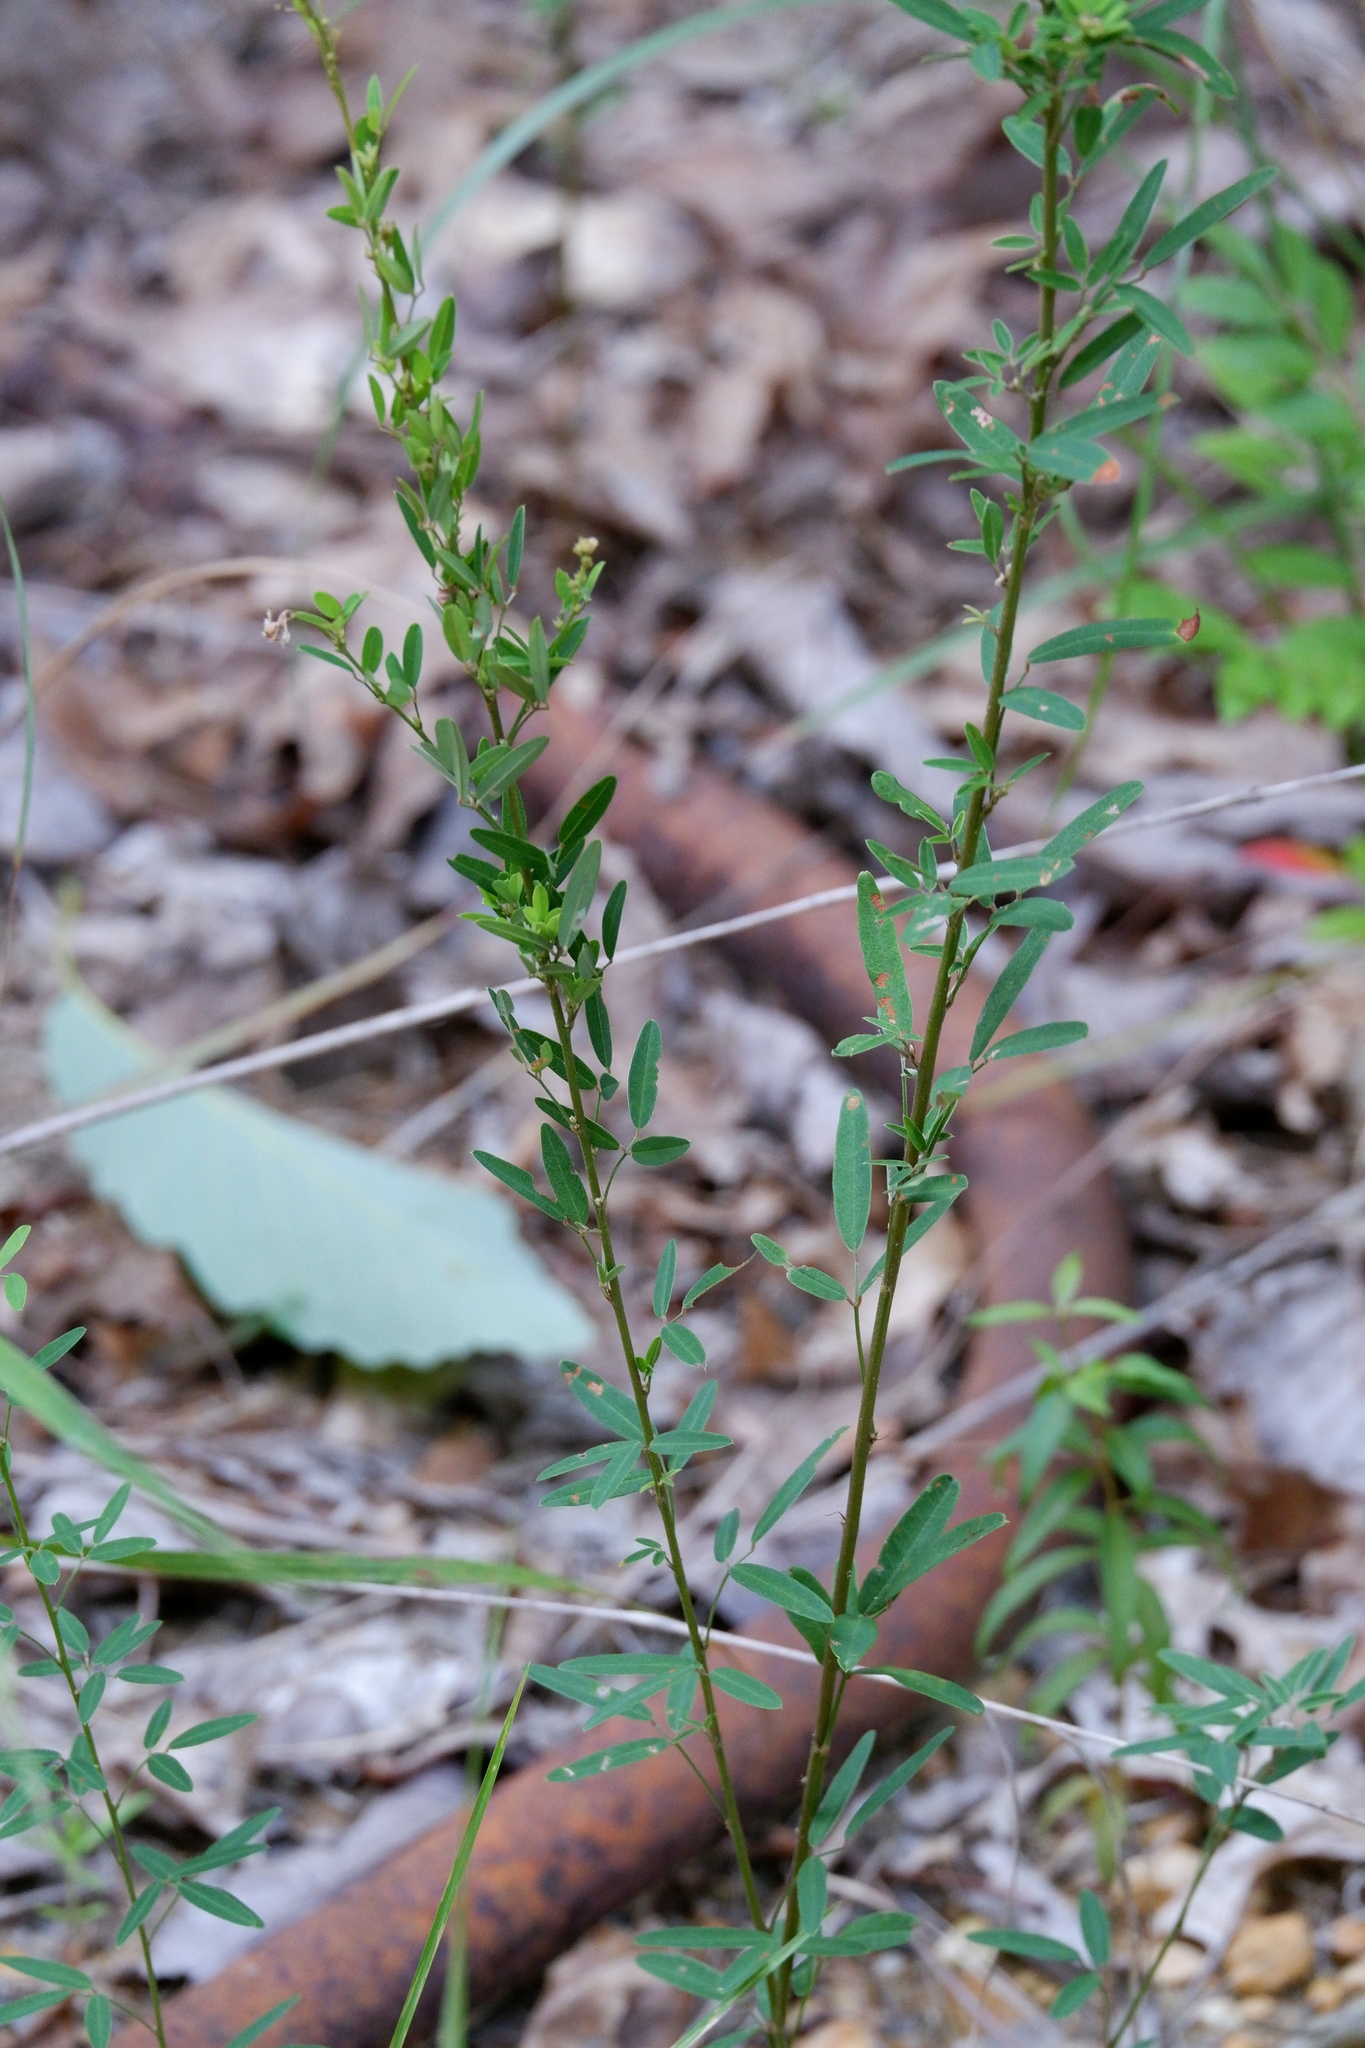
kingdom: Plantae
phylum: Tracheophyta
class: Magnoliopsida
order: Fabales
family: Fabaceae
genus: Lespedeza
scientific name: Lespedeza virginica
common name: Slender bush-clover
